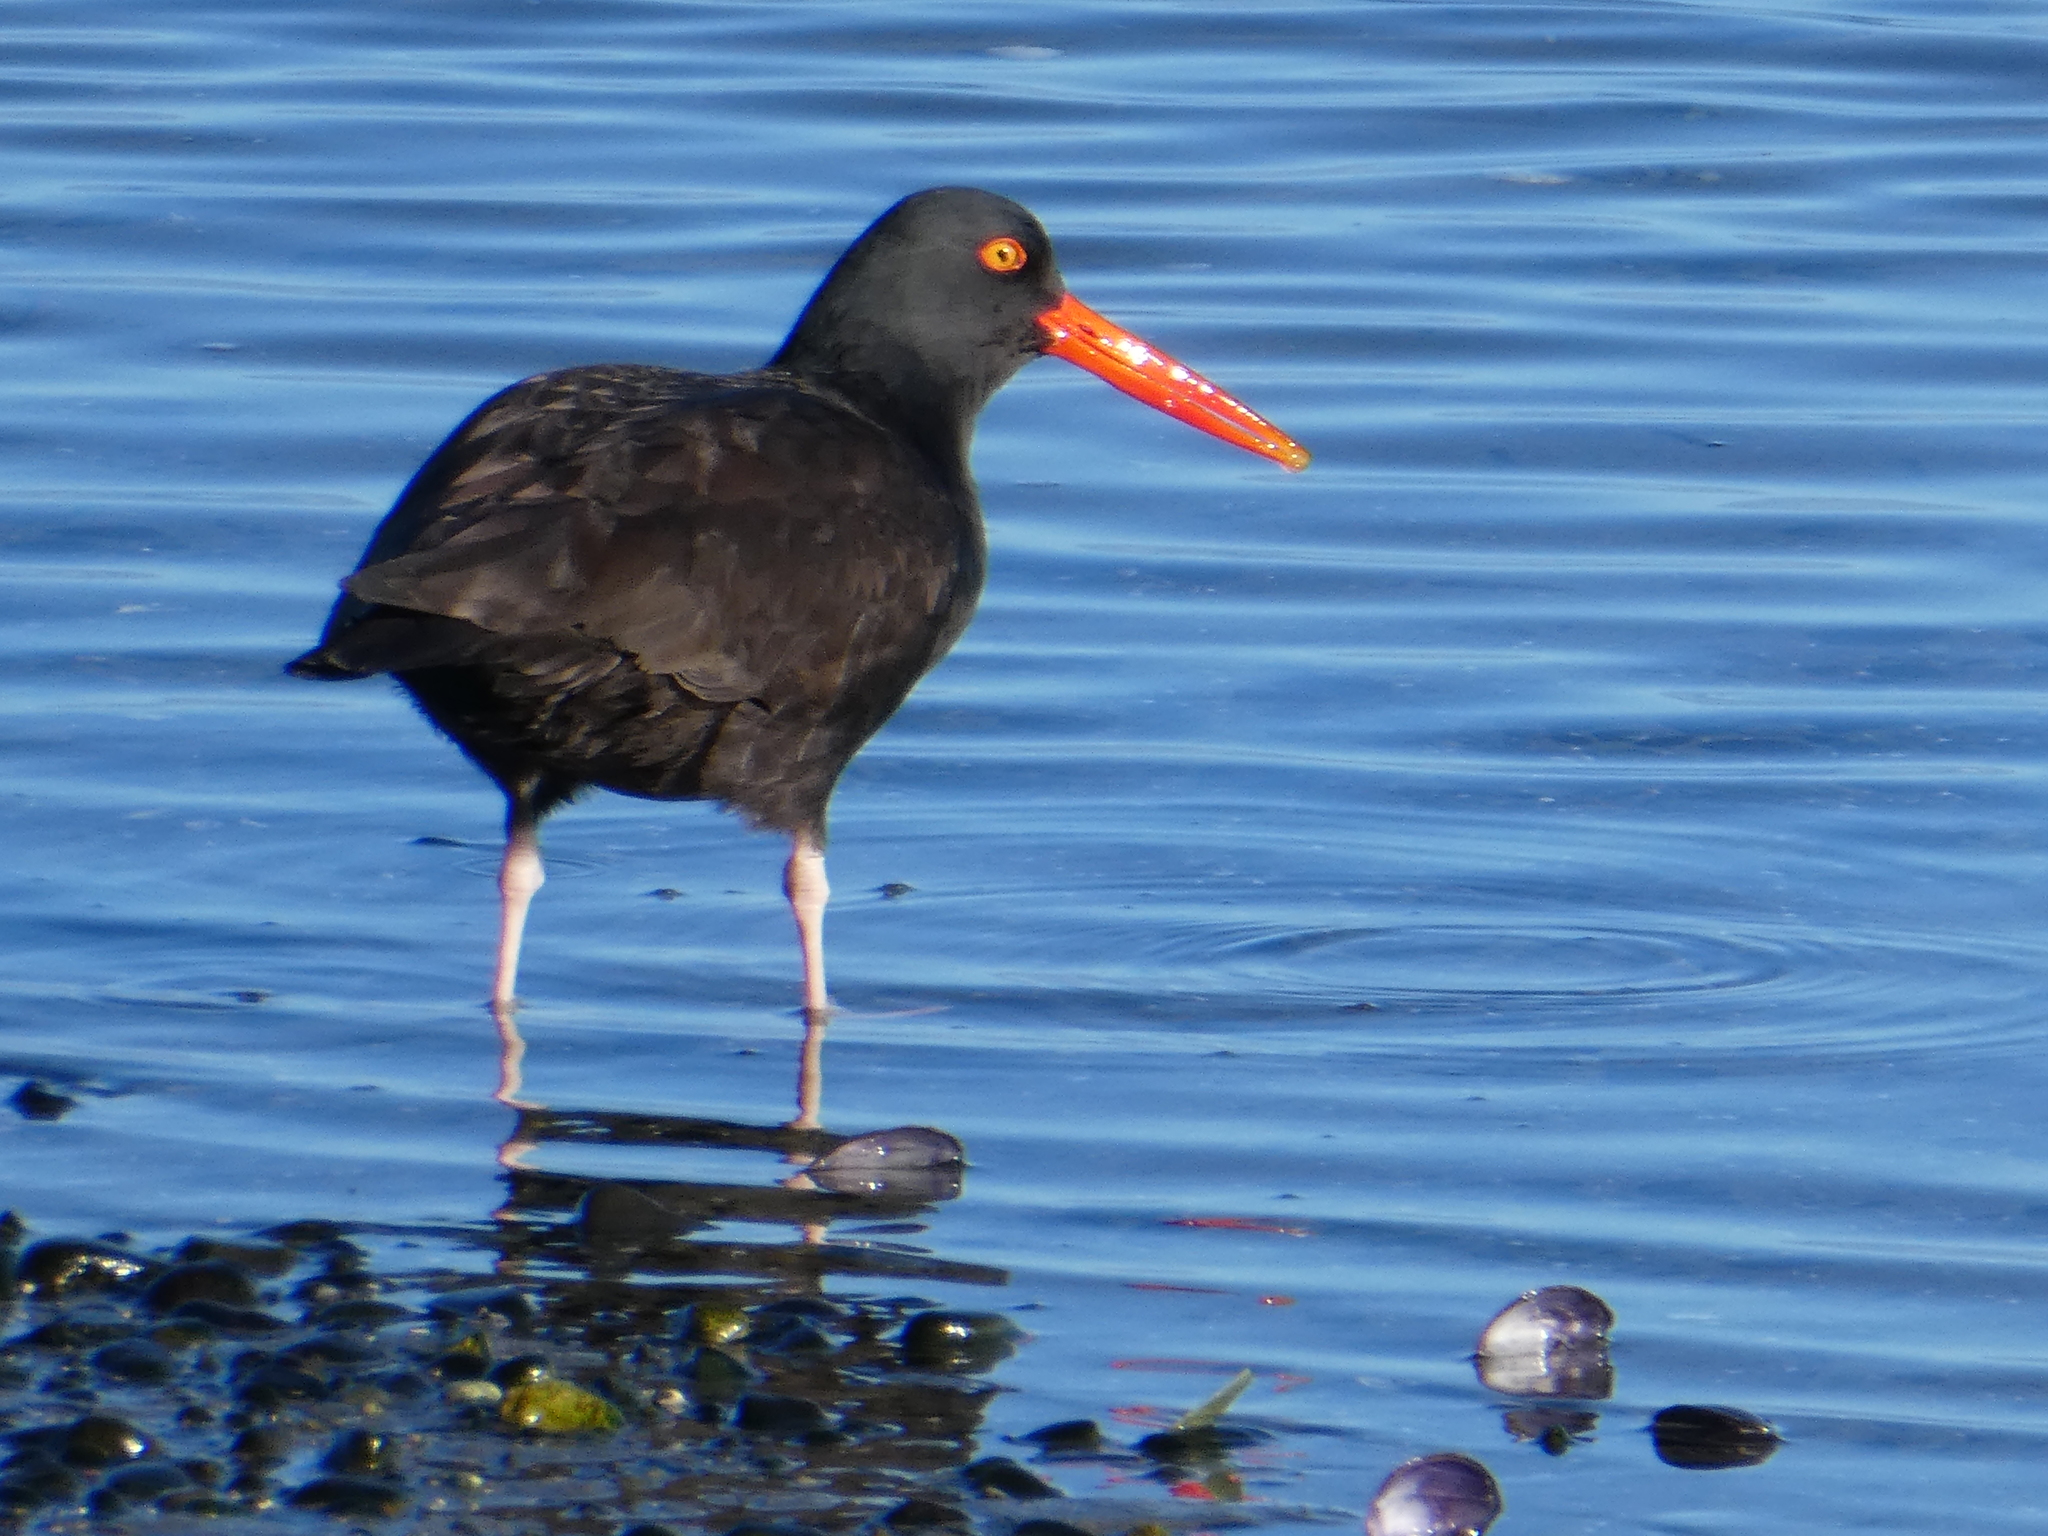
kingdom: Animalia
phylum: Chordata
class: Aves
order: Charadriiformes
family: Haematopodidae
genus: Haematopus
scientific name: Haematopus bachmani
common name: Black oystercatcher
